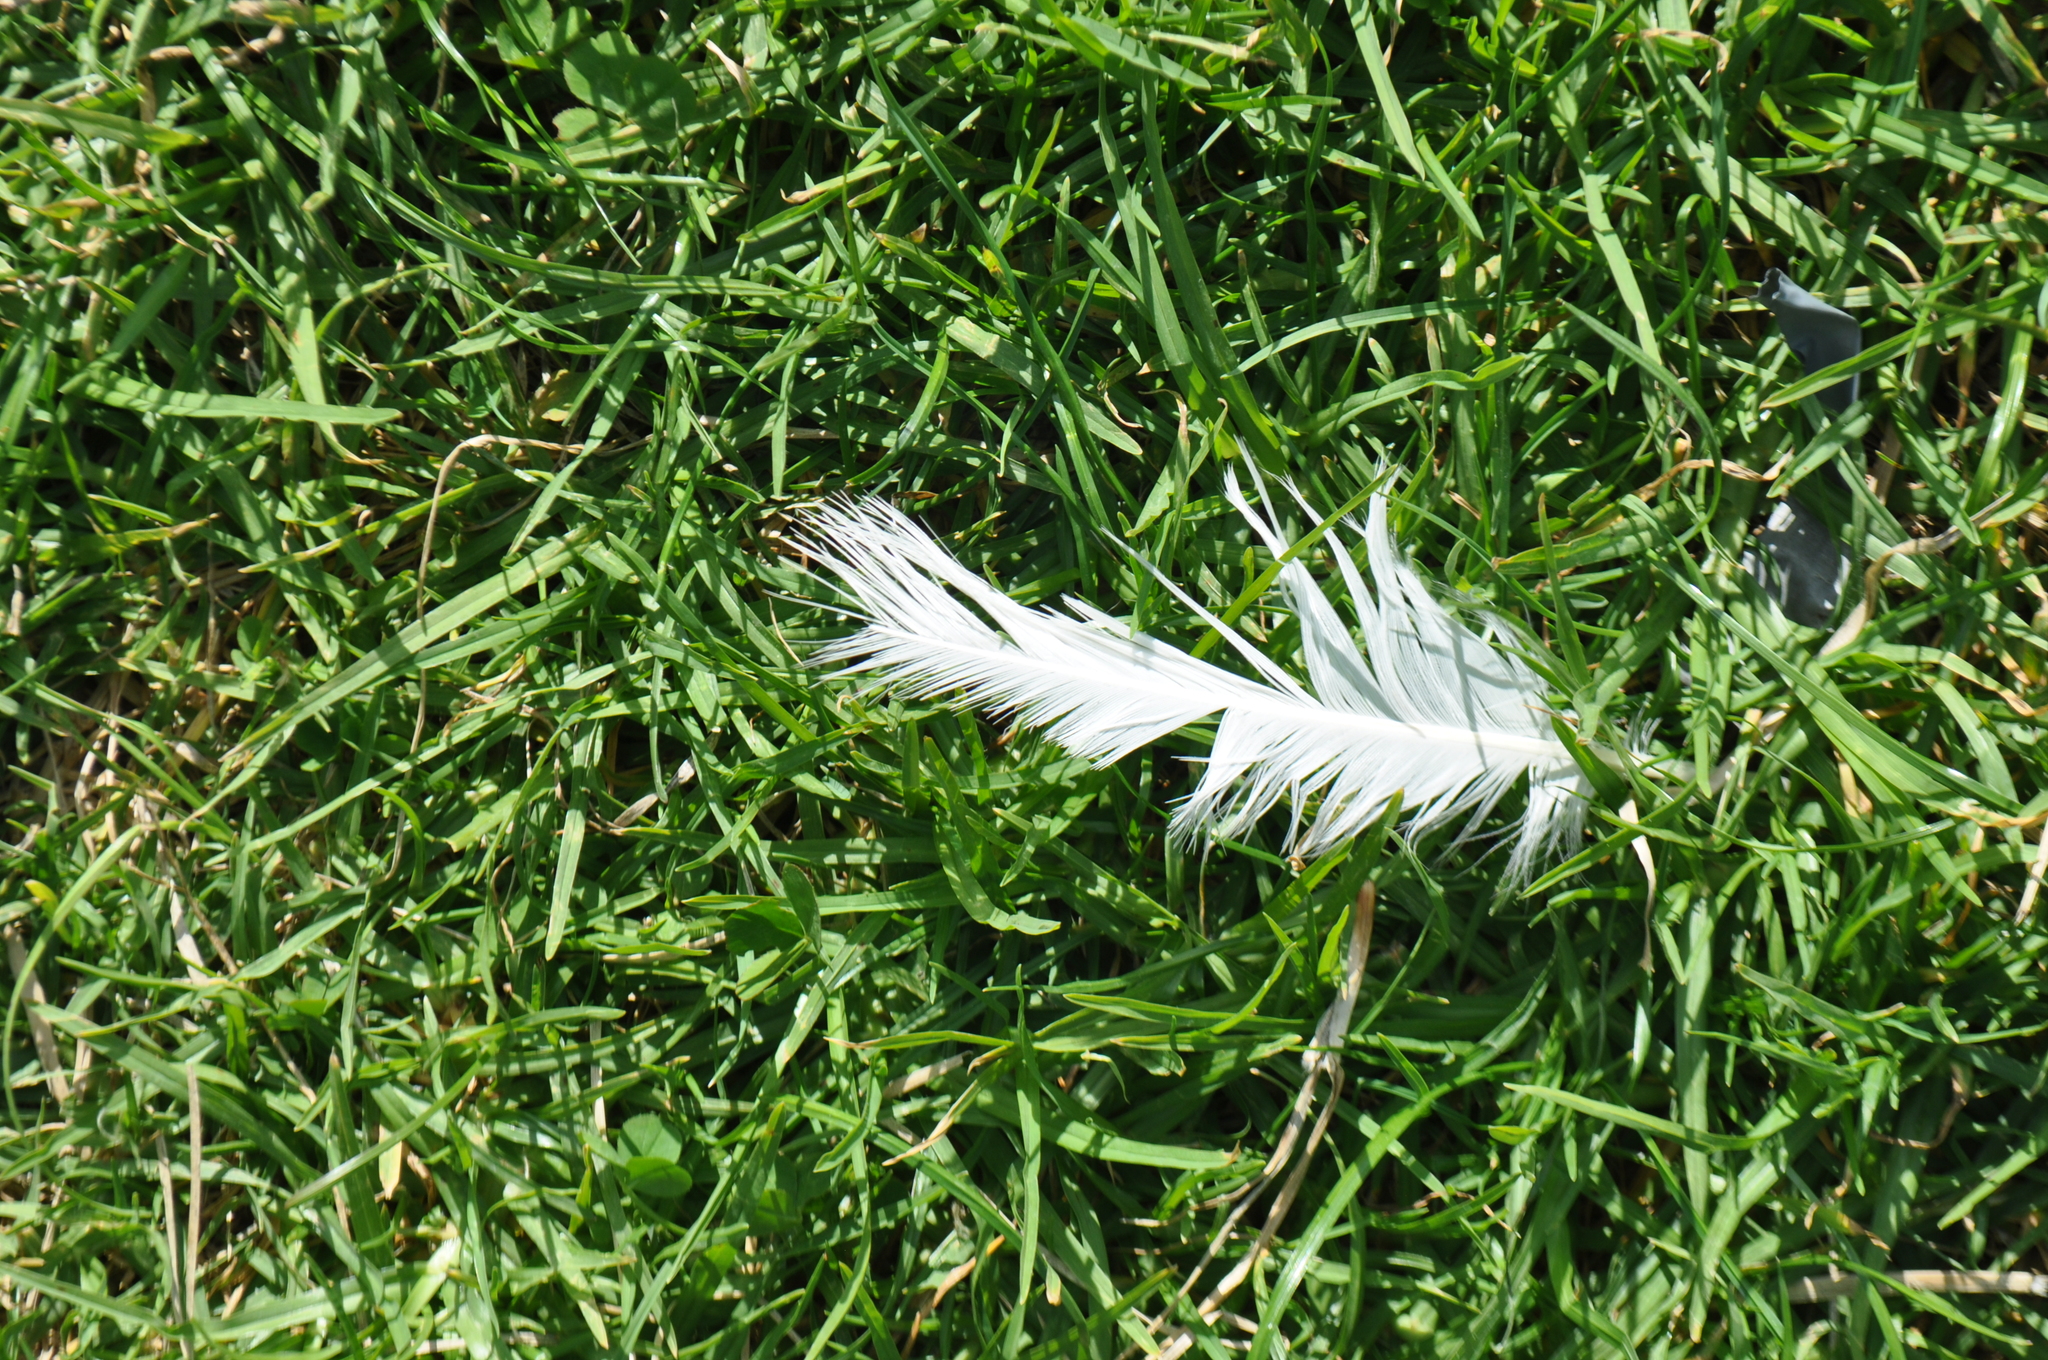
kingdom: Animalia
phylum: Chordata
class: Aves
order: Charadriiformes
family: Laridae
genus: Larus
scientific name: Larus dominicanus
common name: Kelp gull
